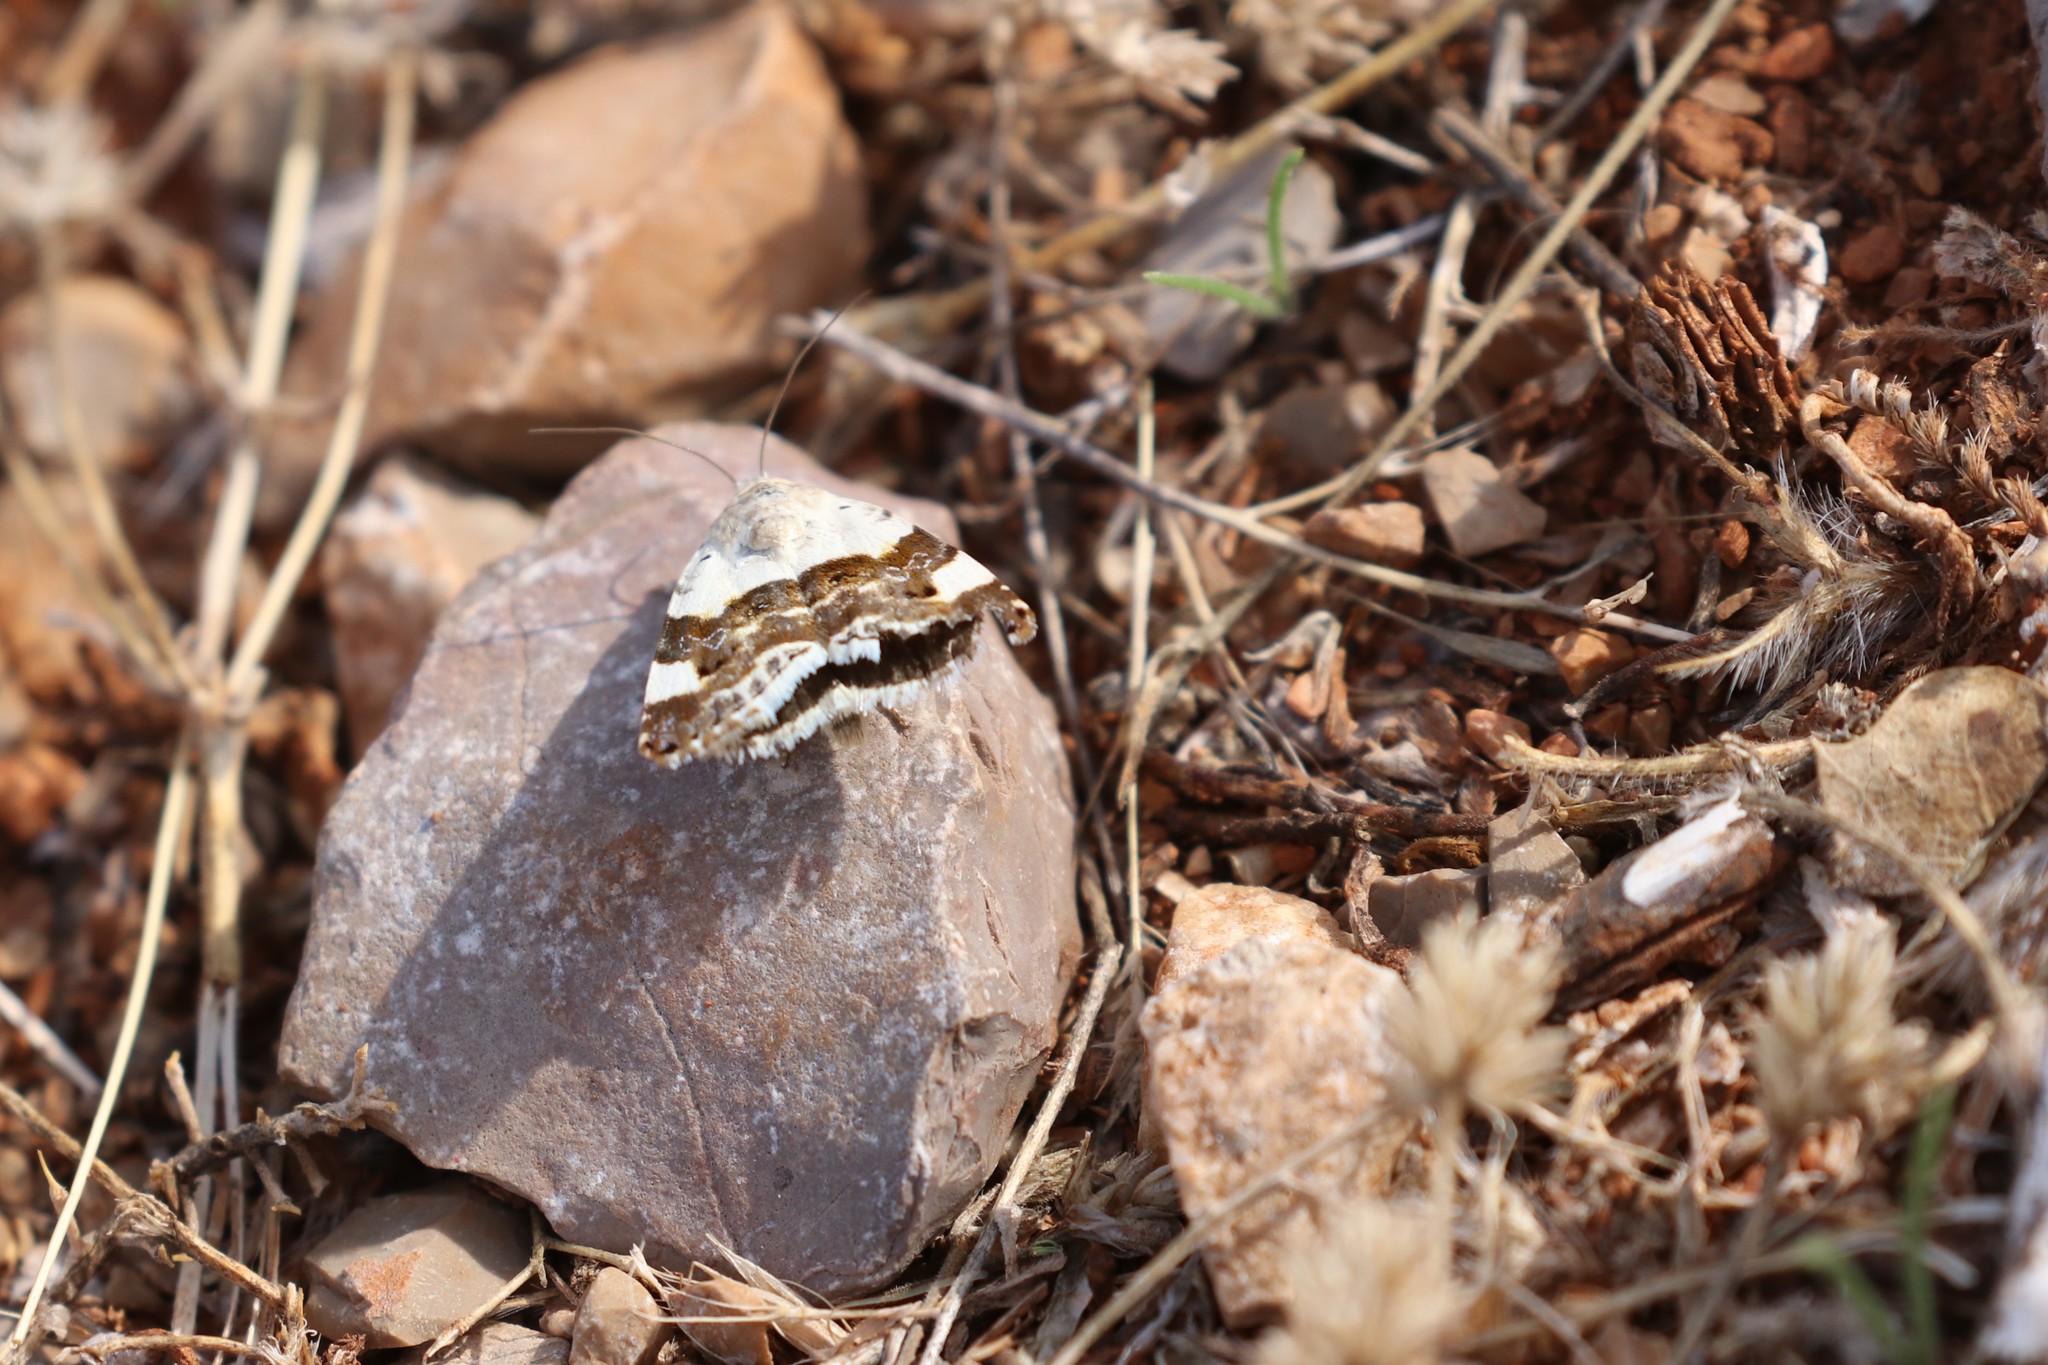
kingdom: Animalia
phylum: Arthropoda
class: Insecta
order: Lepidoptera
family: Noctuidae
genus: Acontia
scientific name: Acontia lucida
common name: Pale shoulder
